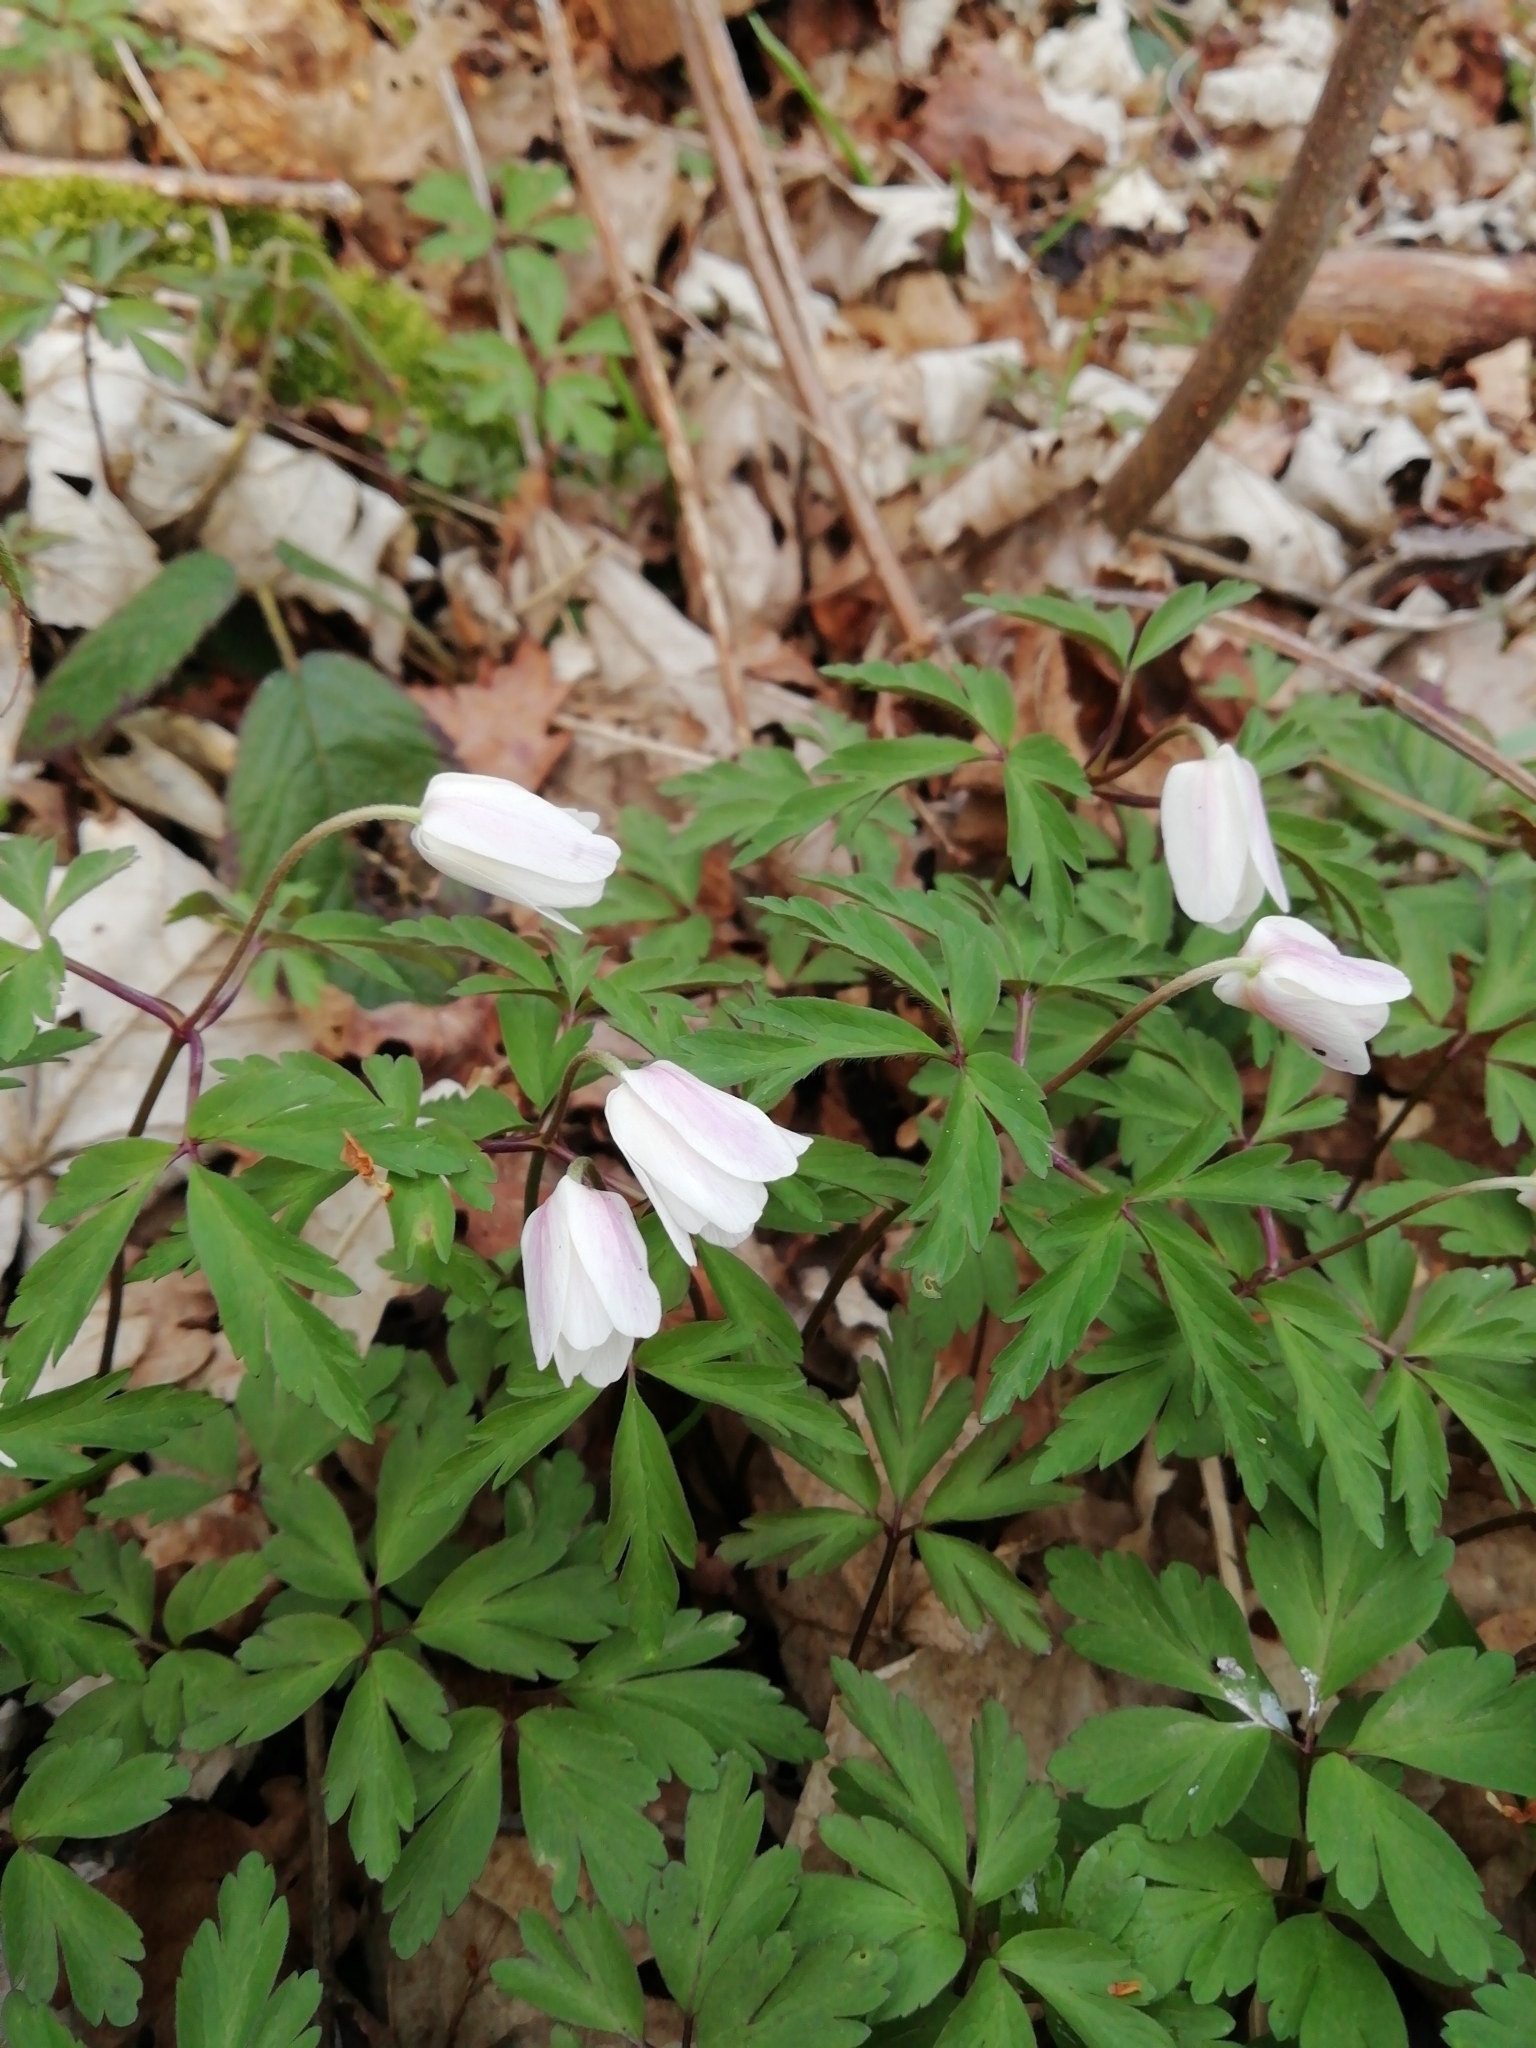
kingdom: Plantae
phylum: Tracheophyta
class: Magnoliopsida
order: Ranunculales
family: Ranunculaceae
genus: Anemone
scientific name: Anemone nemorosa
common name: Wood anemone
